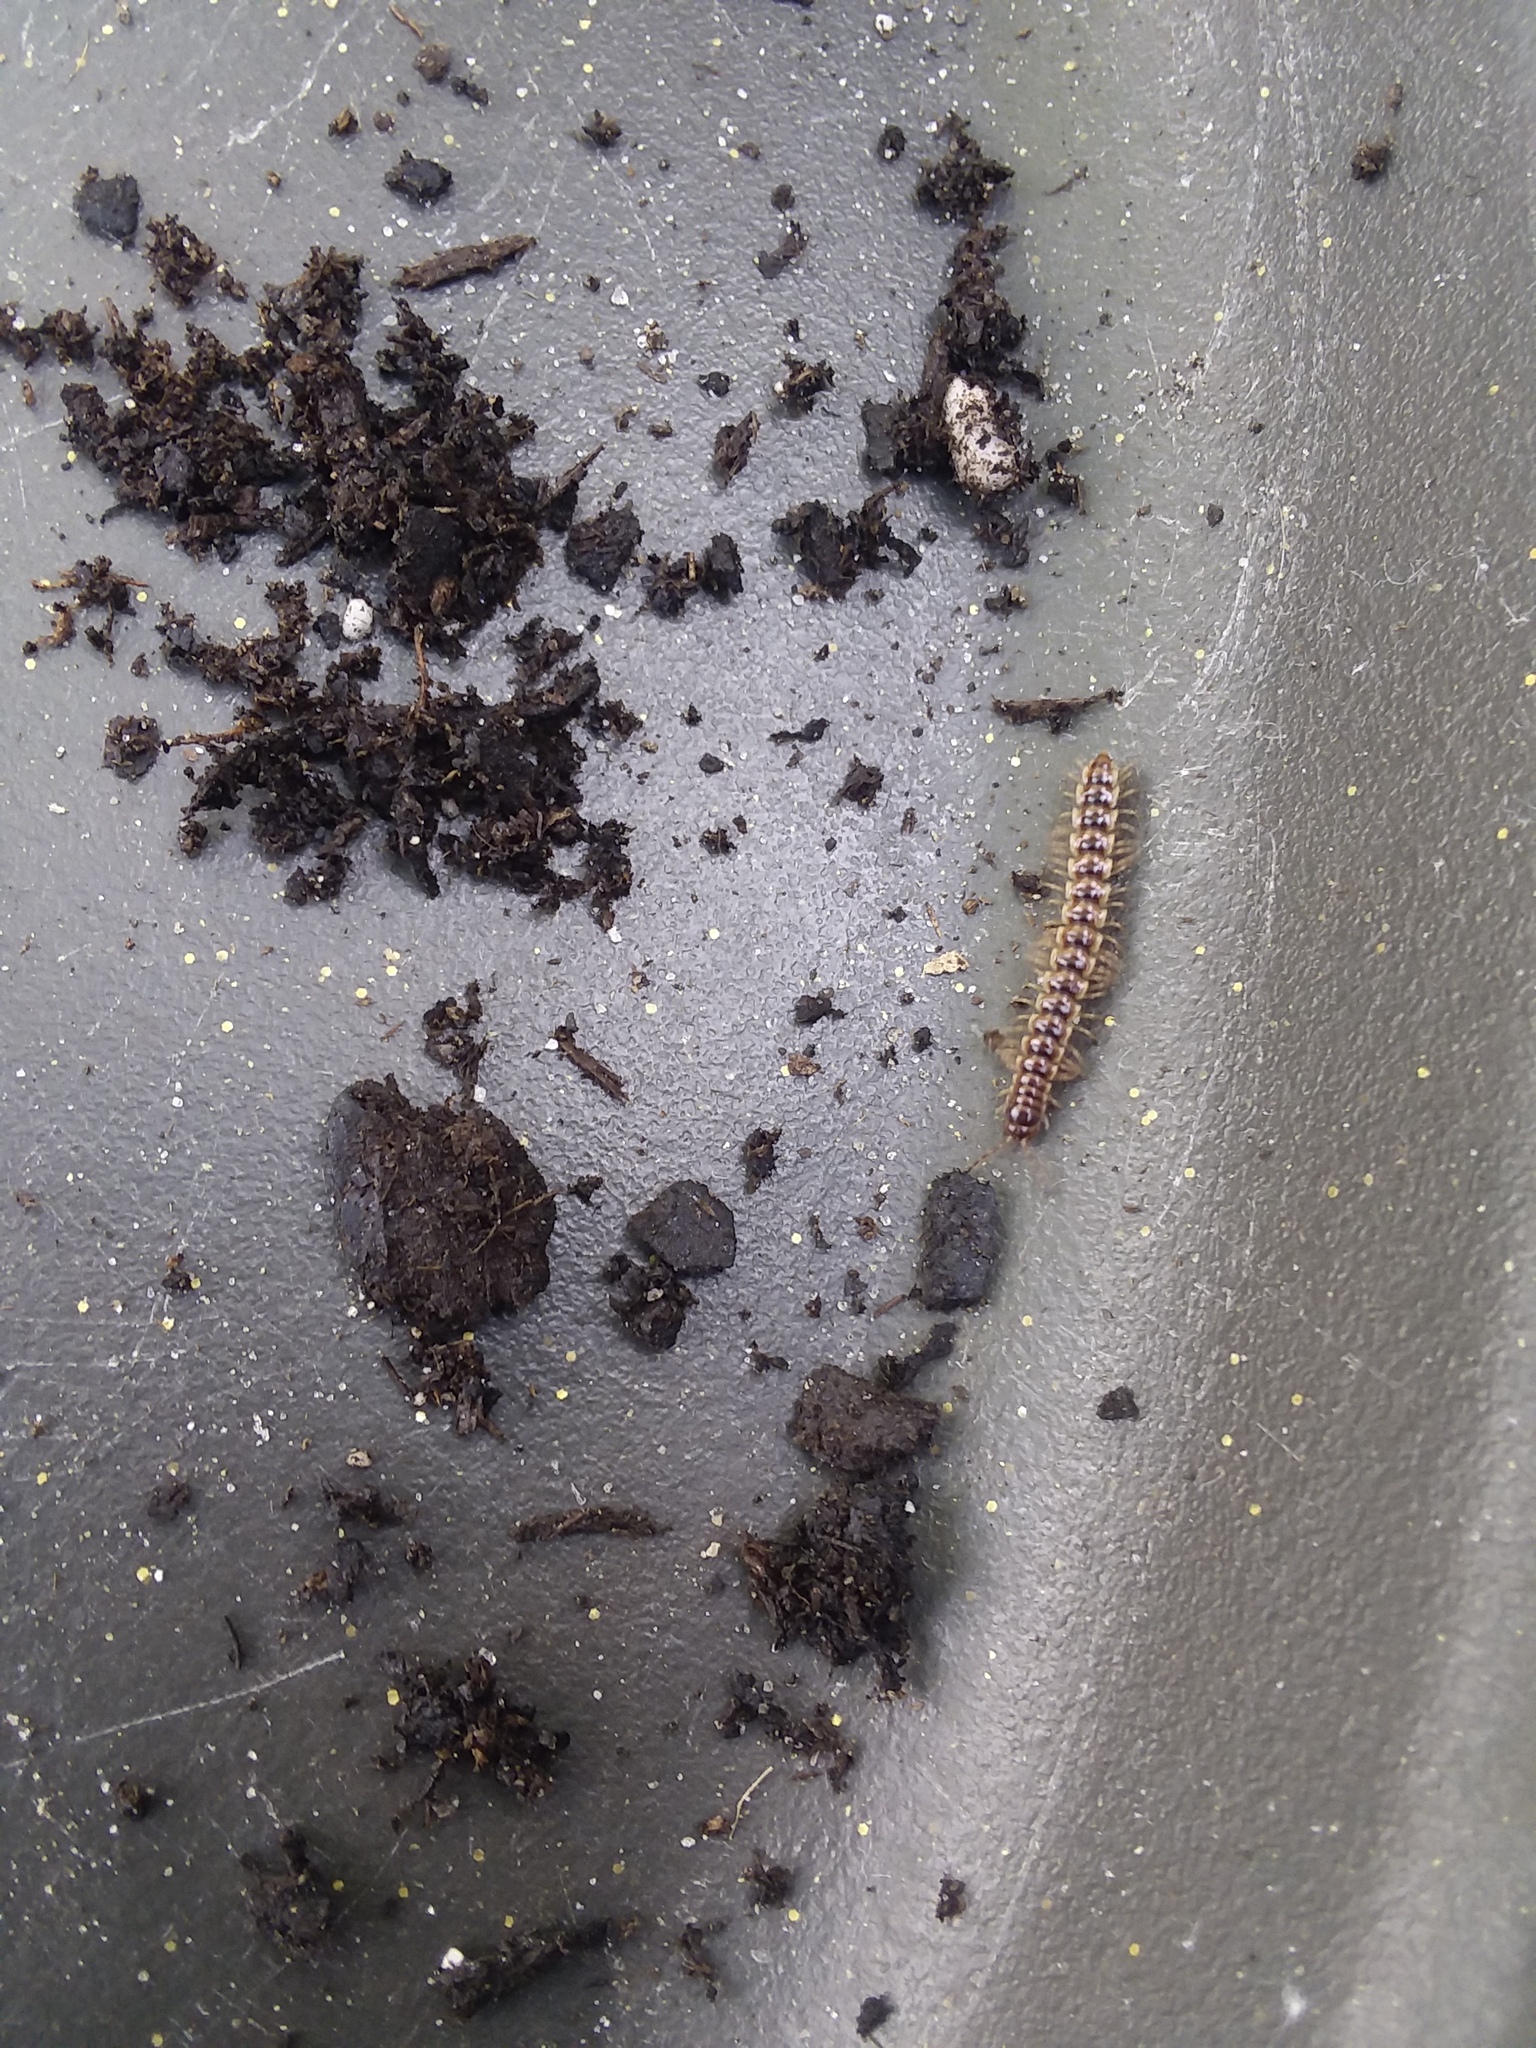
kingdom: Animalia
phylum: Arthropoda
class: Diplopoda
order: Polydesmida
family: Paradoxosomatidae
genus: Oxidus
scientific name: Oxidus gracilis
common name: Greenhouse millipede
